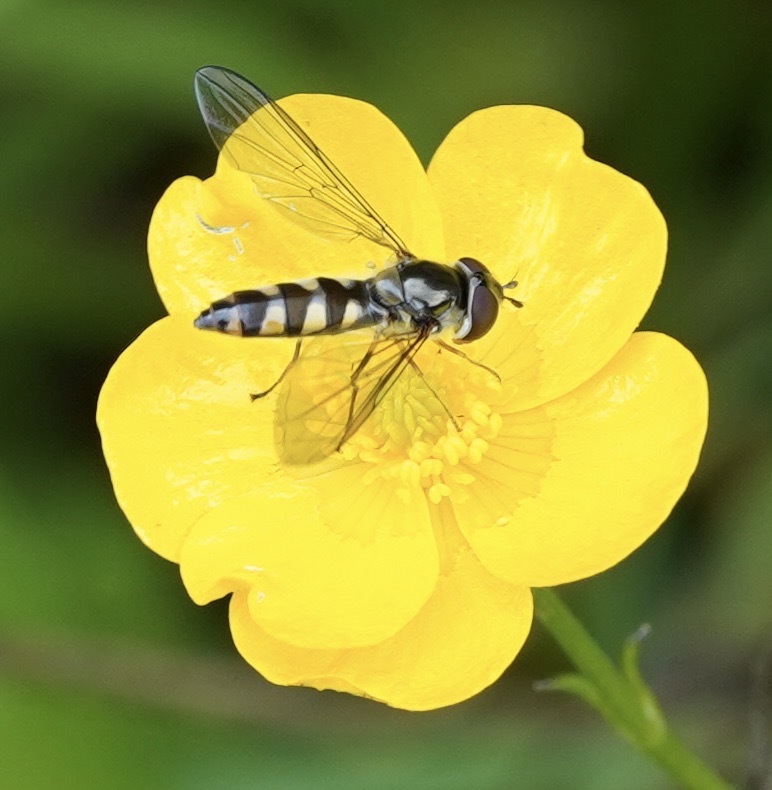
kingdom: Animalia
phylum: Arthropoda
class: Insecta
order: Diptera
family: Syrphidae
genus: Meliscaeva
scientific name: Meliscaeva auricollis
